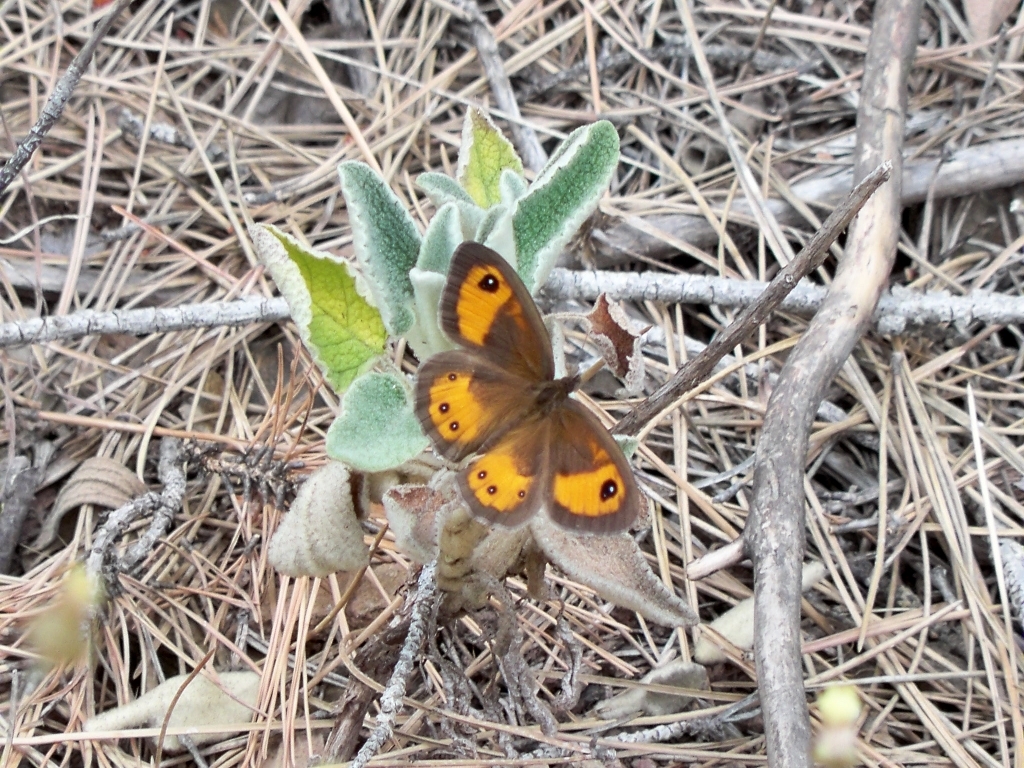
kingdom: Animalia
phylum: Arthropoda
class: Insecta
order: Lepidoptera
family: Nymphalidae
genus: Pyronia
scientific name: Pyronia bathseba
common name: Spanish gatekeeper
